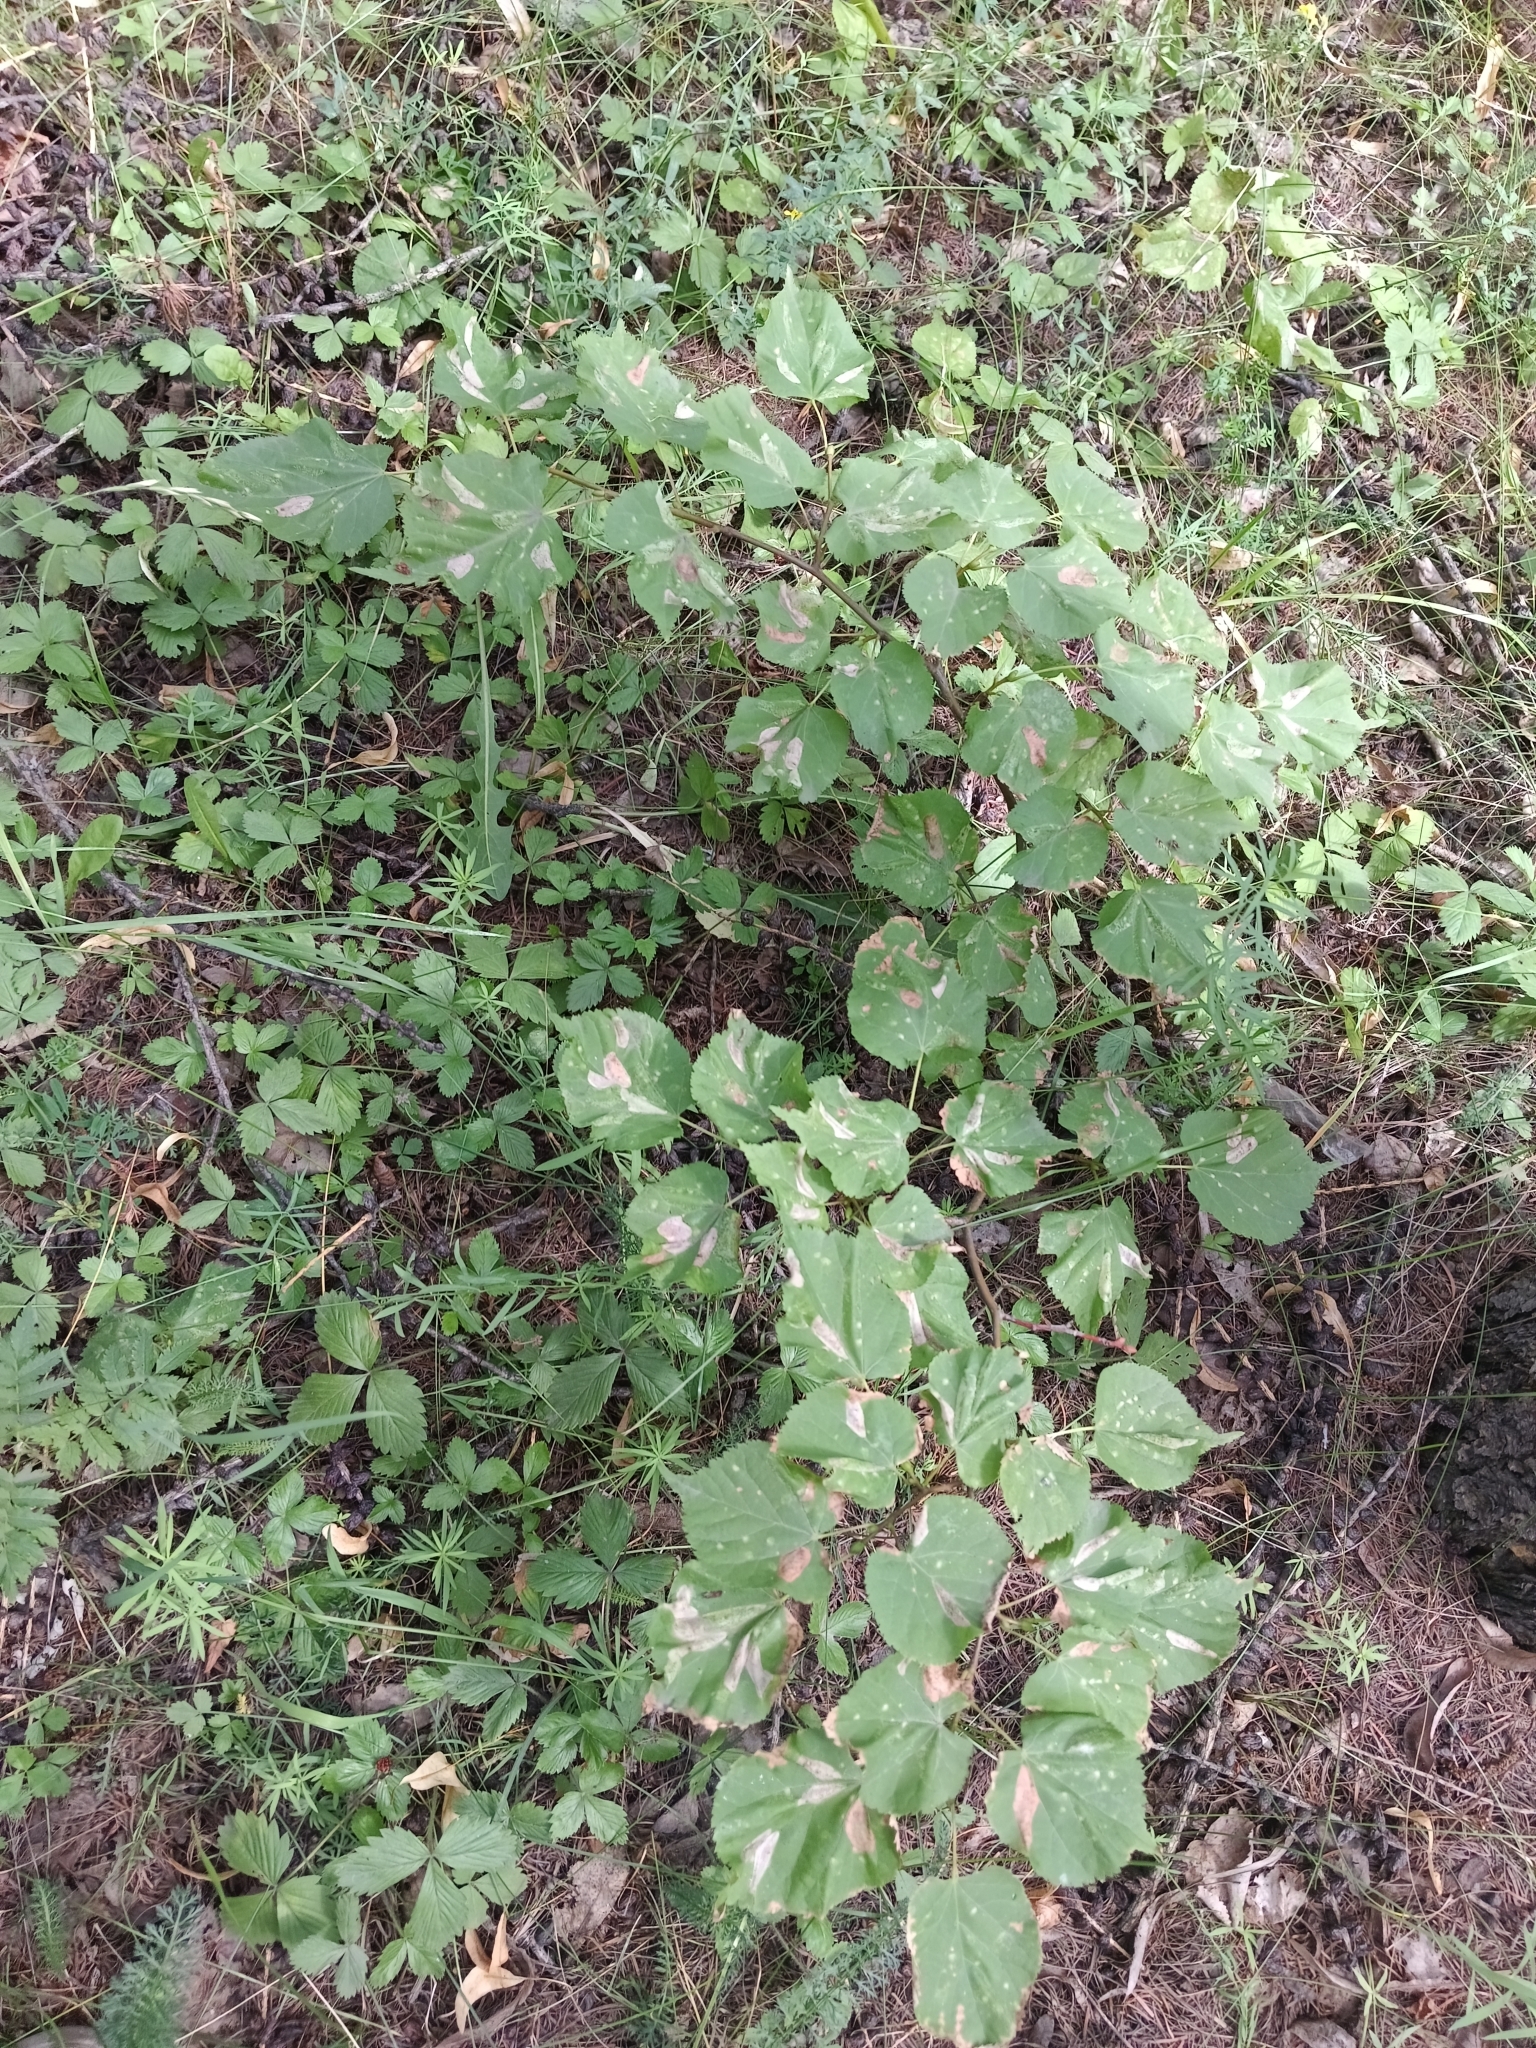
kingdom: Plantae
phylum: Tracheophyta
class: Magnoliopsida
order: Malvales
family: Malvaceae
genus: Tilia
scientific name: Tilia cordata
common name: Small-leaved lime
